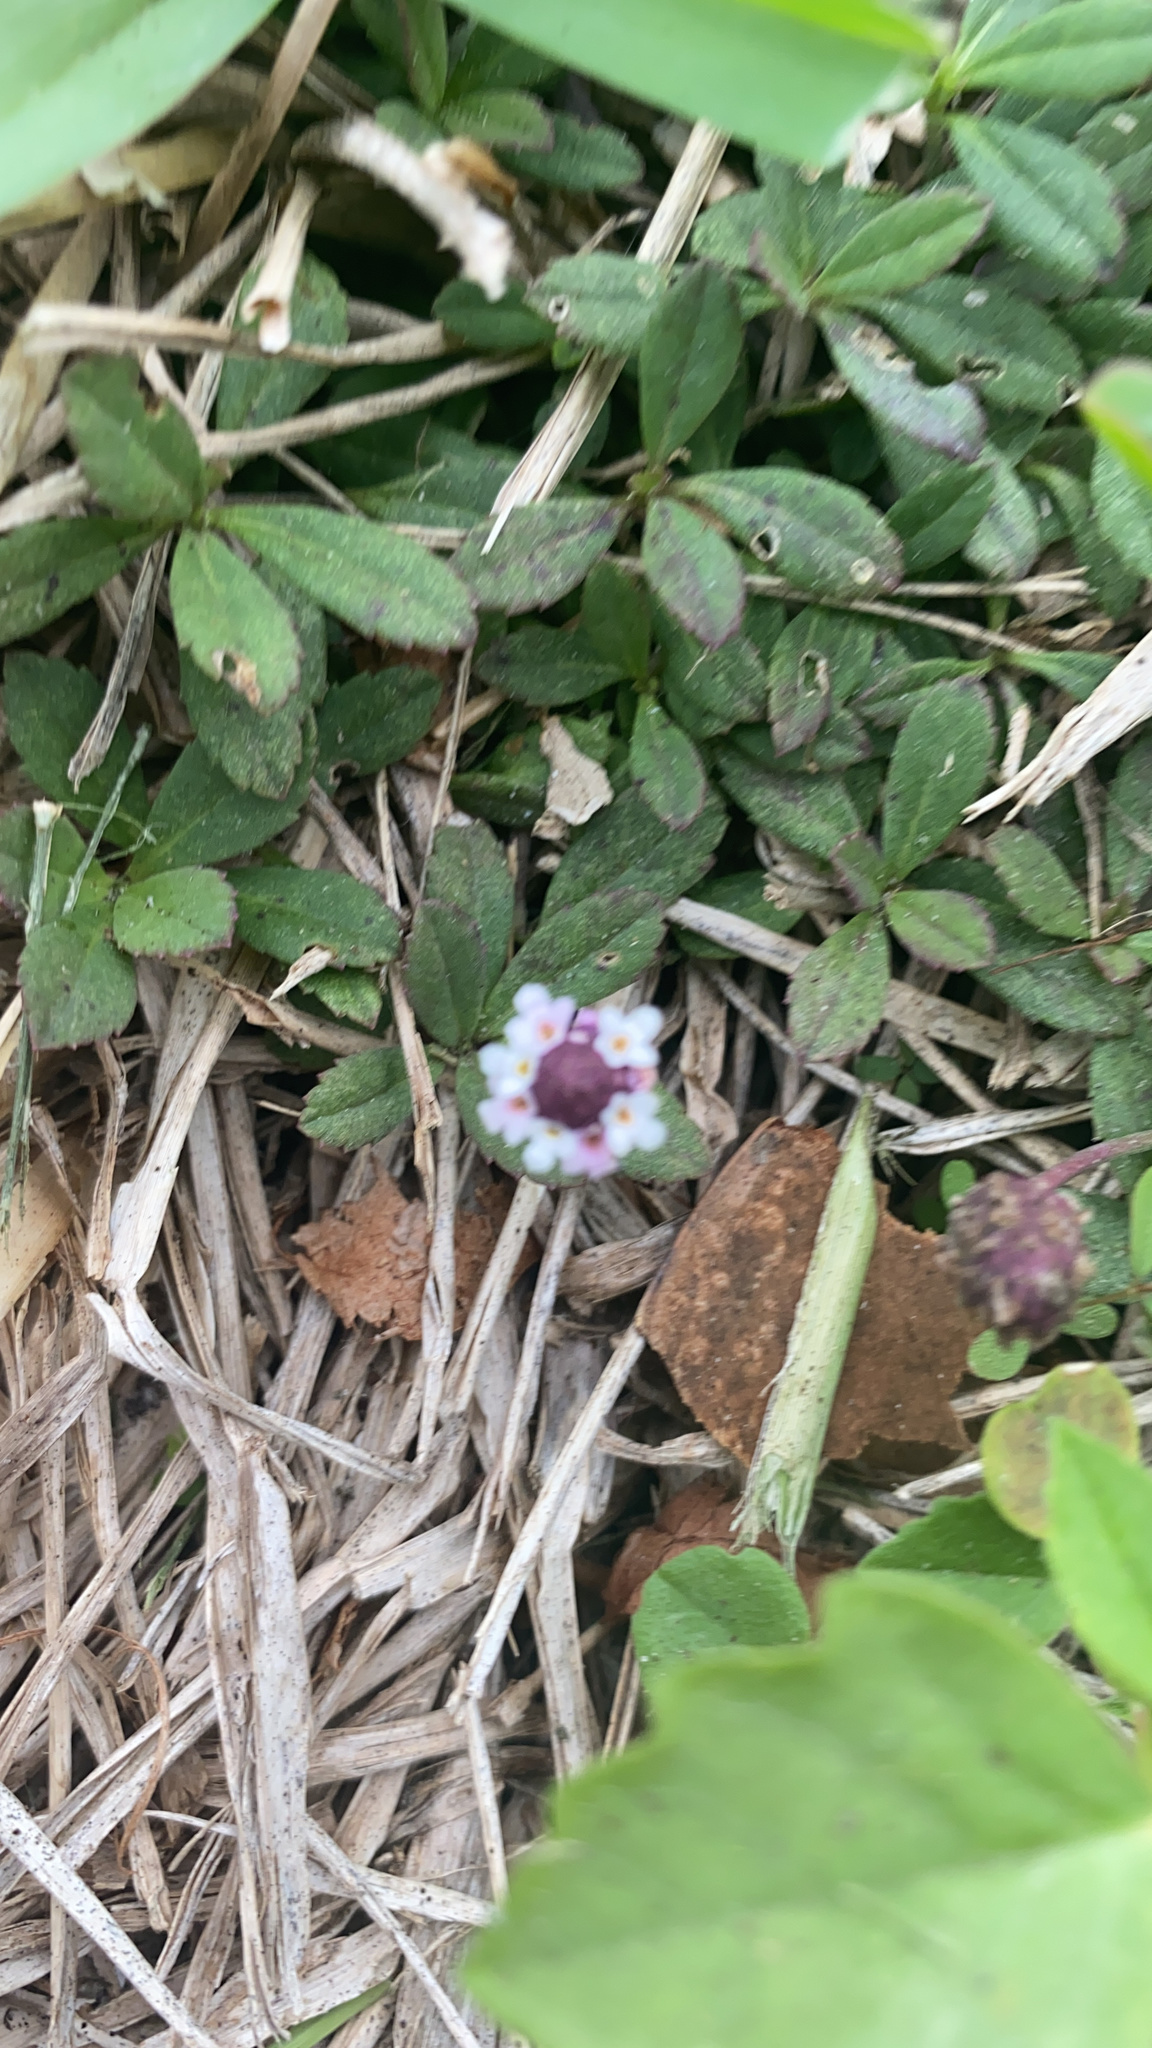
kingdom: Plantae
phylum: Tracheophyta
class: Magnoliopsida
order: Lamiales
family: Verbenaceae
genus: Phyla
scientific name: Phyla nodiflora
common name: Frogfruit
